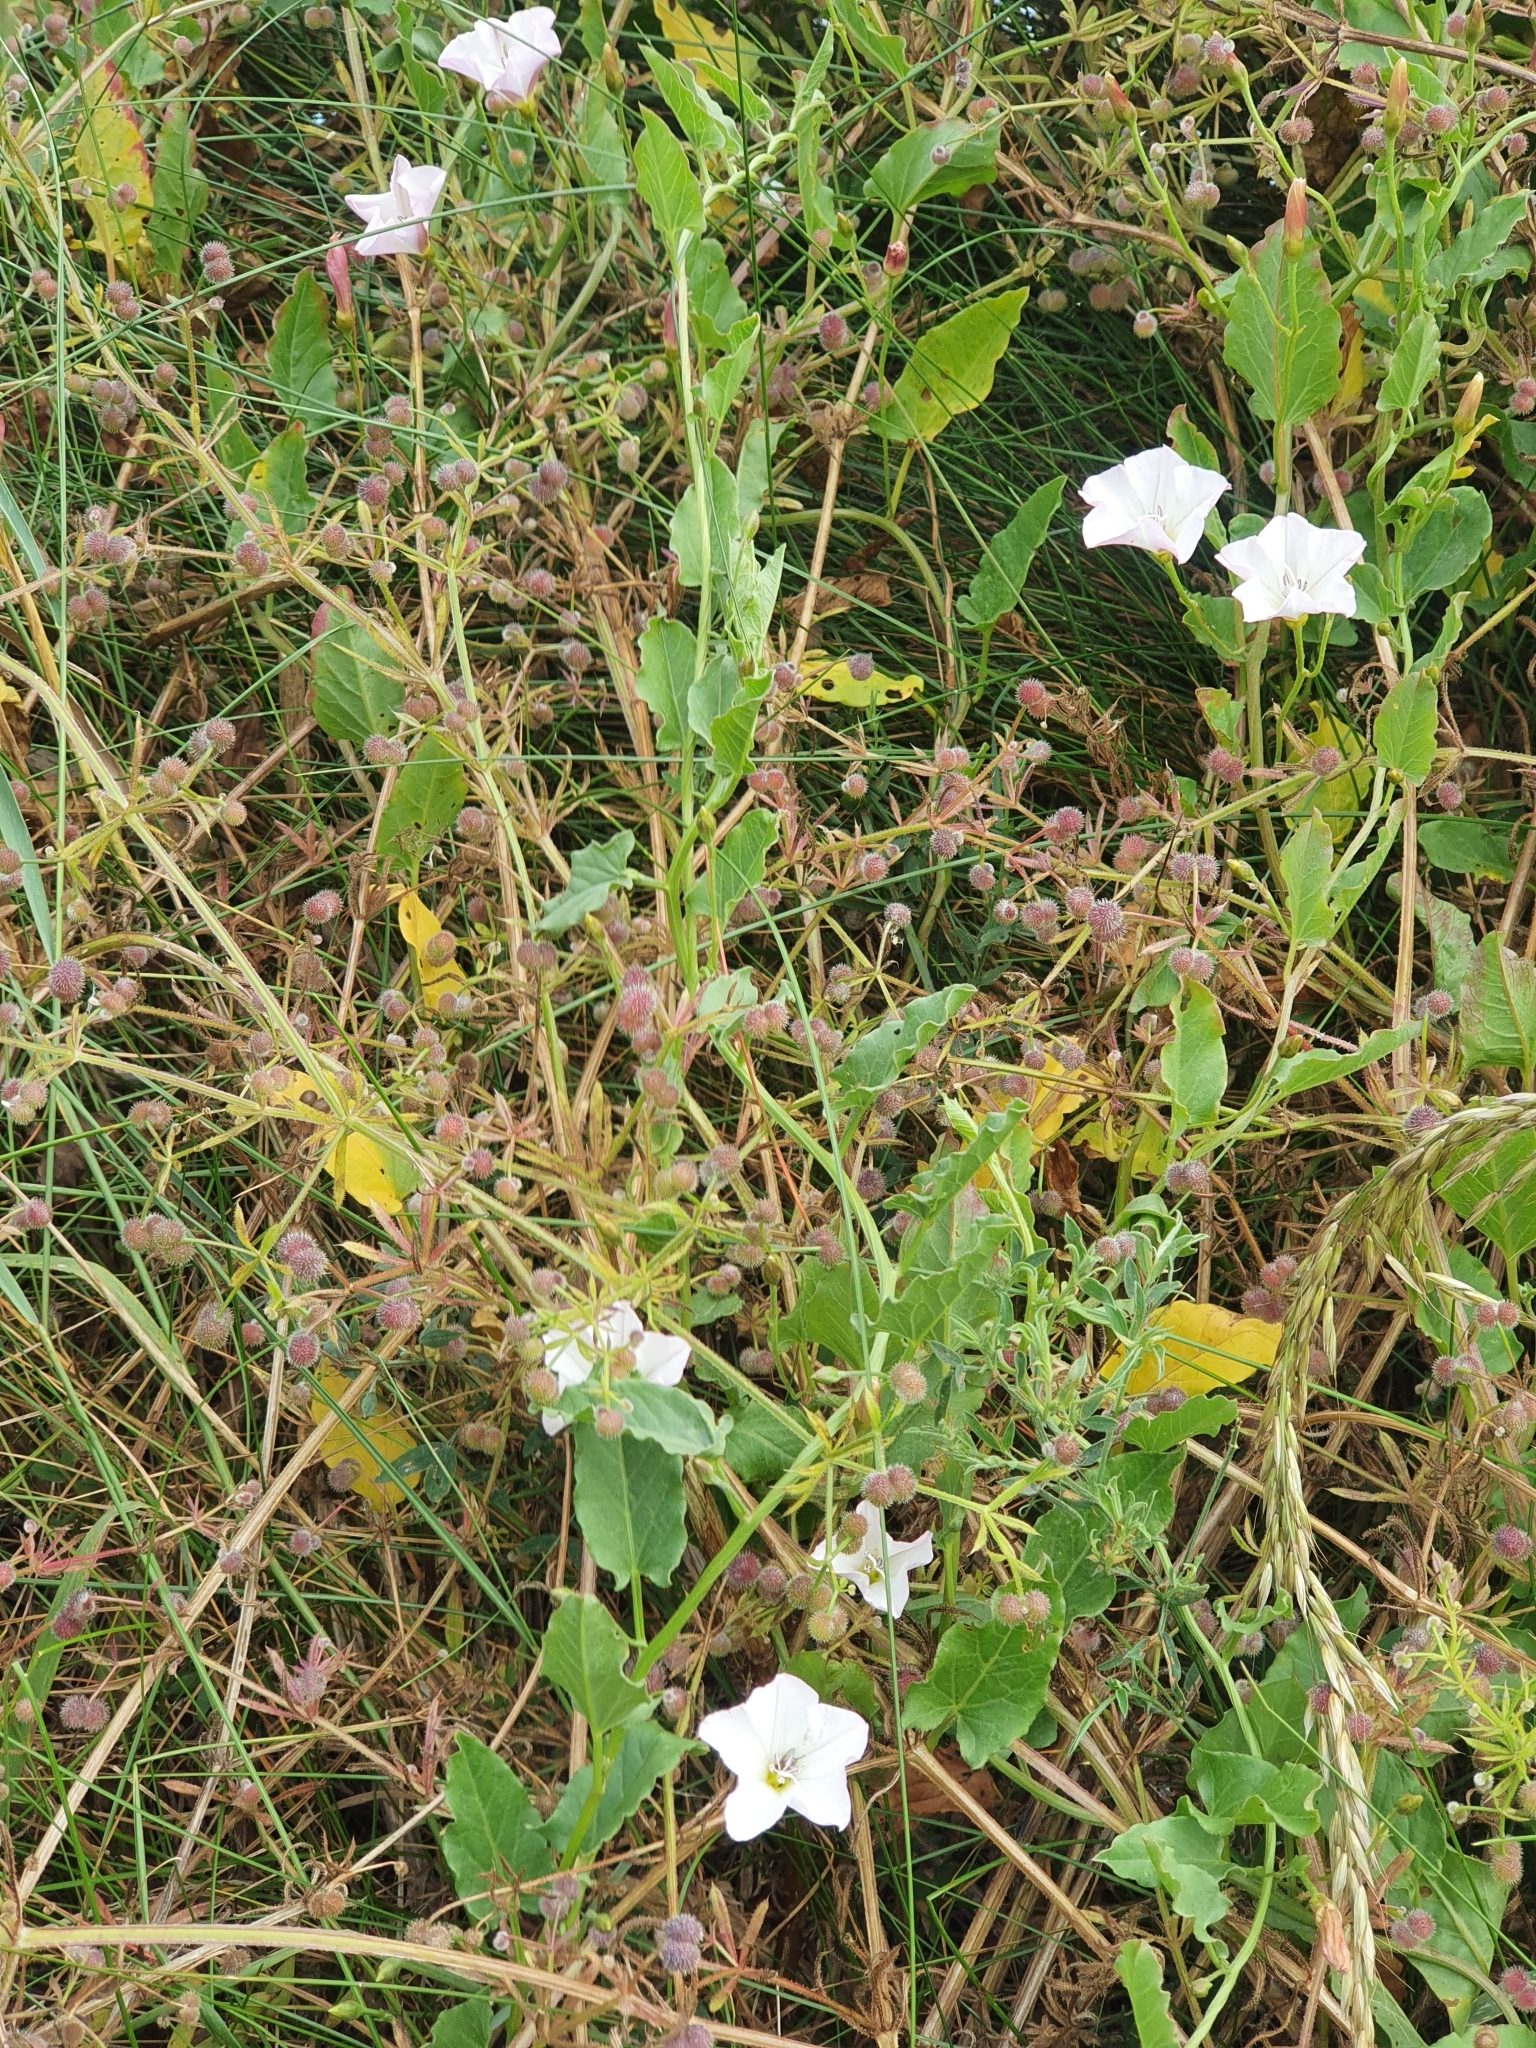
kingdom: Plantae
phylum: Tracheophyta
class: Magnoliopsida
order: Solanales
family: Convolvulaceae
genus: Convolvulus
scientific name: Convolvulus arvensis
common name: Field bindweed
